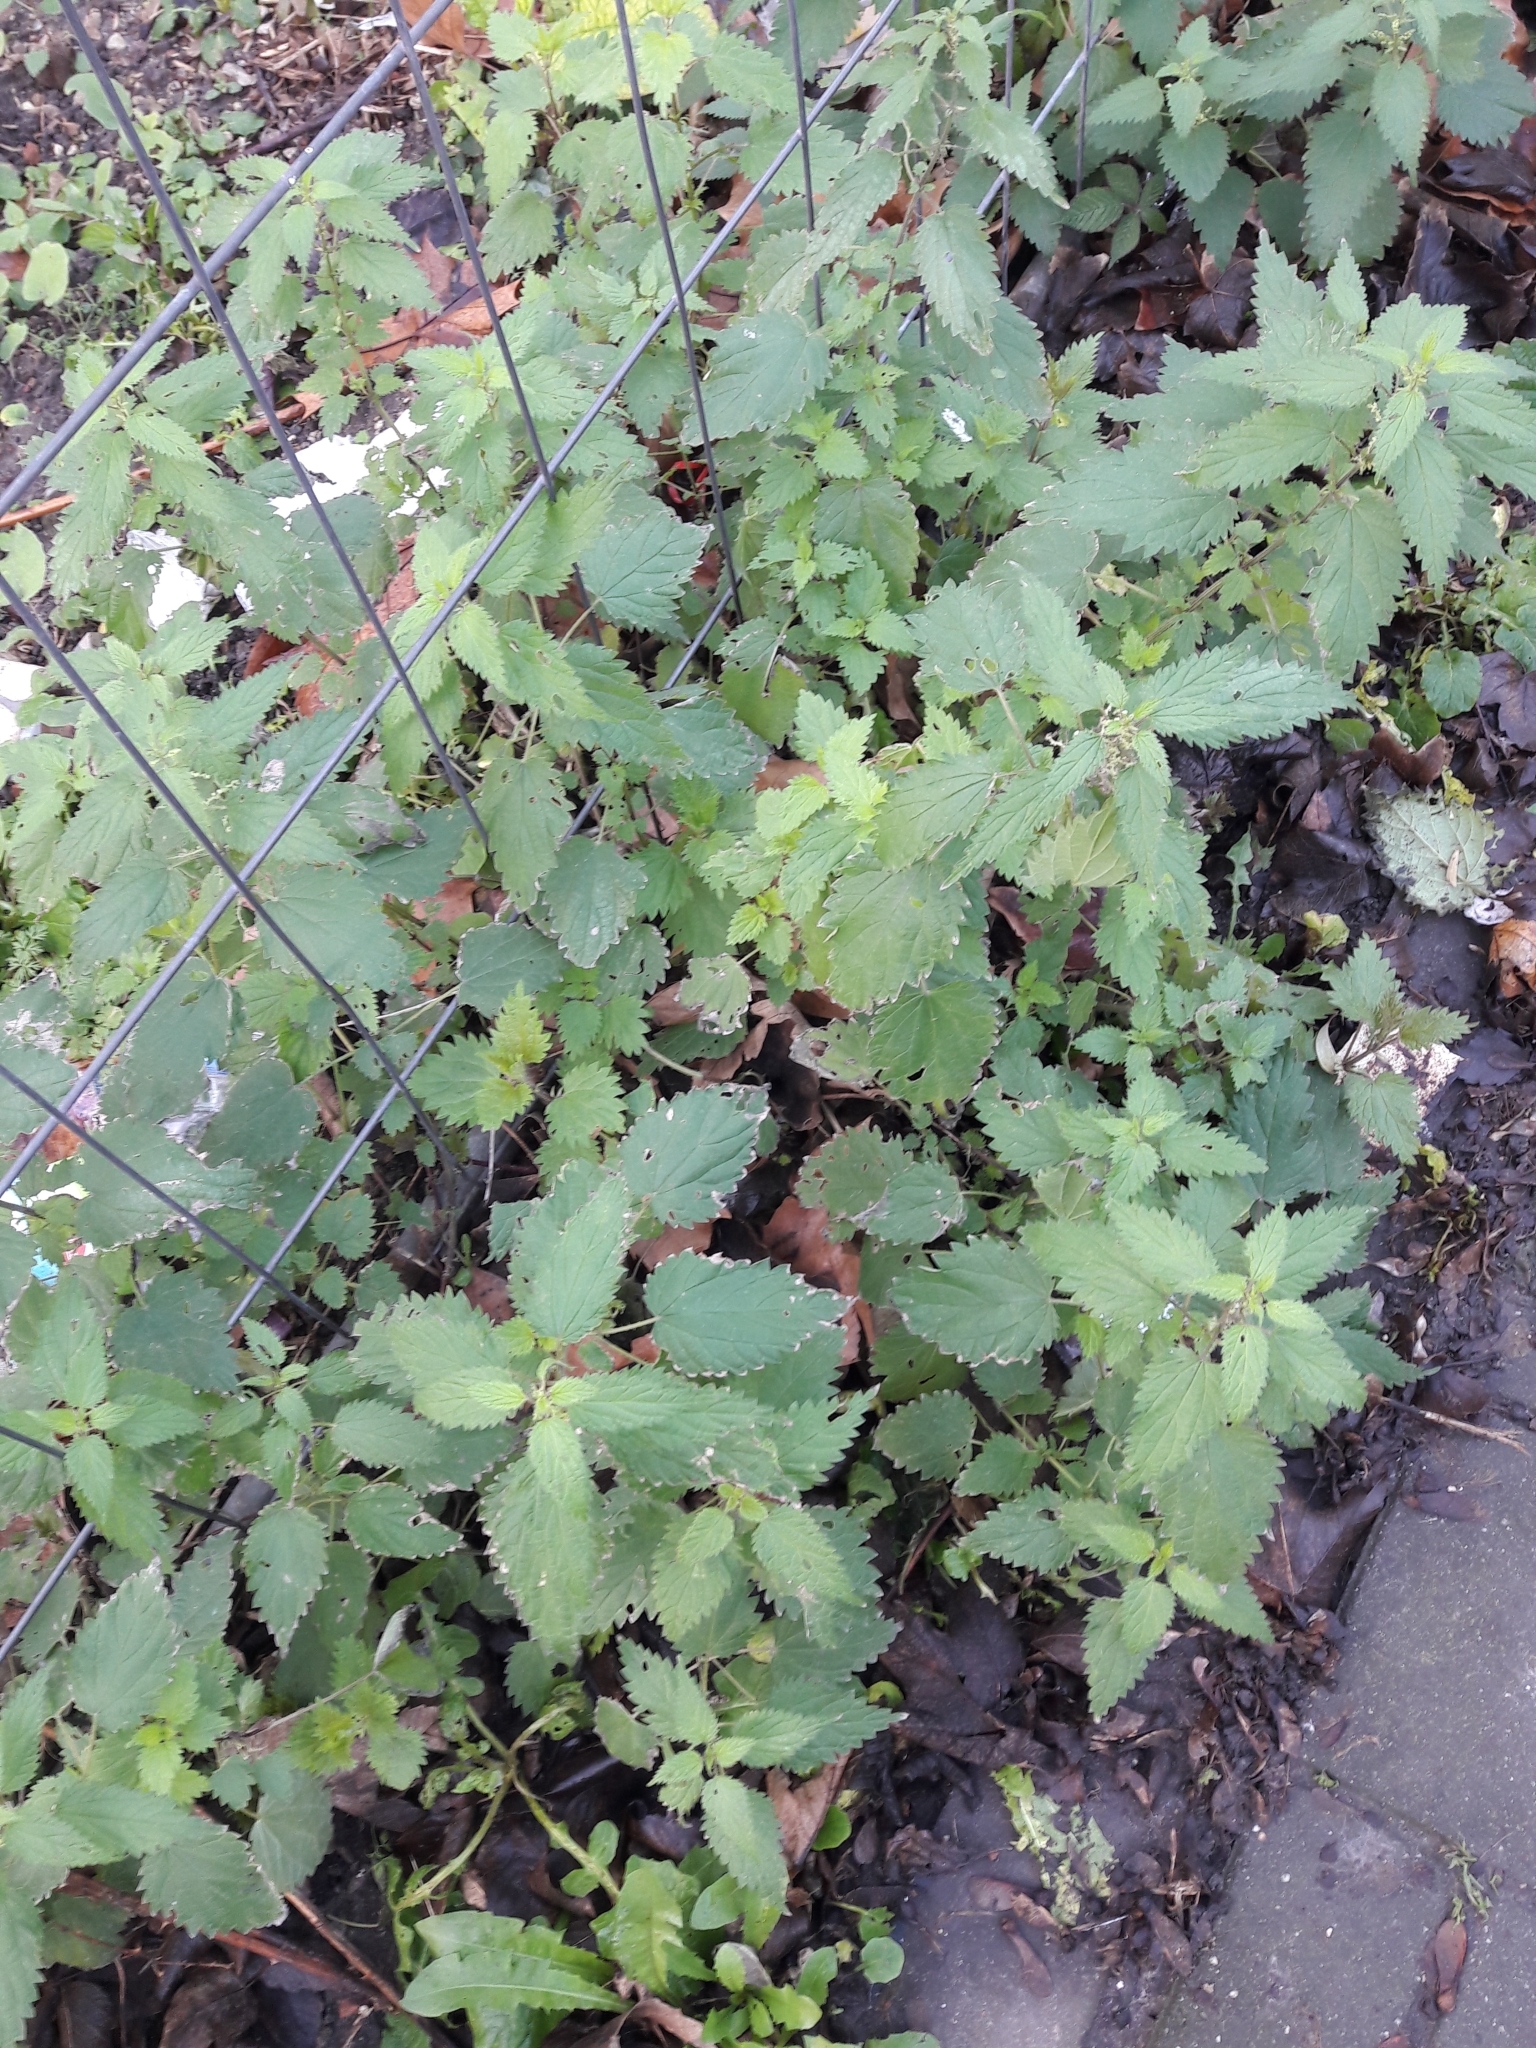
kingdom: Plantae
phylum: Tracheophyta
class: Magnoliopsida
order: Rosales
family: Urticaceae
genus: Urtica
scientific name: Urtica dioica
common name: Common nettle
